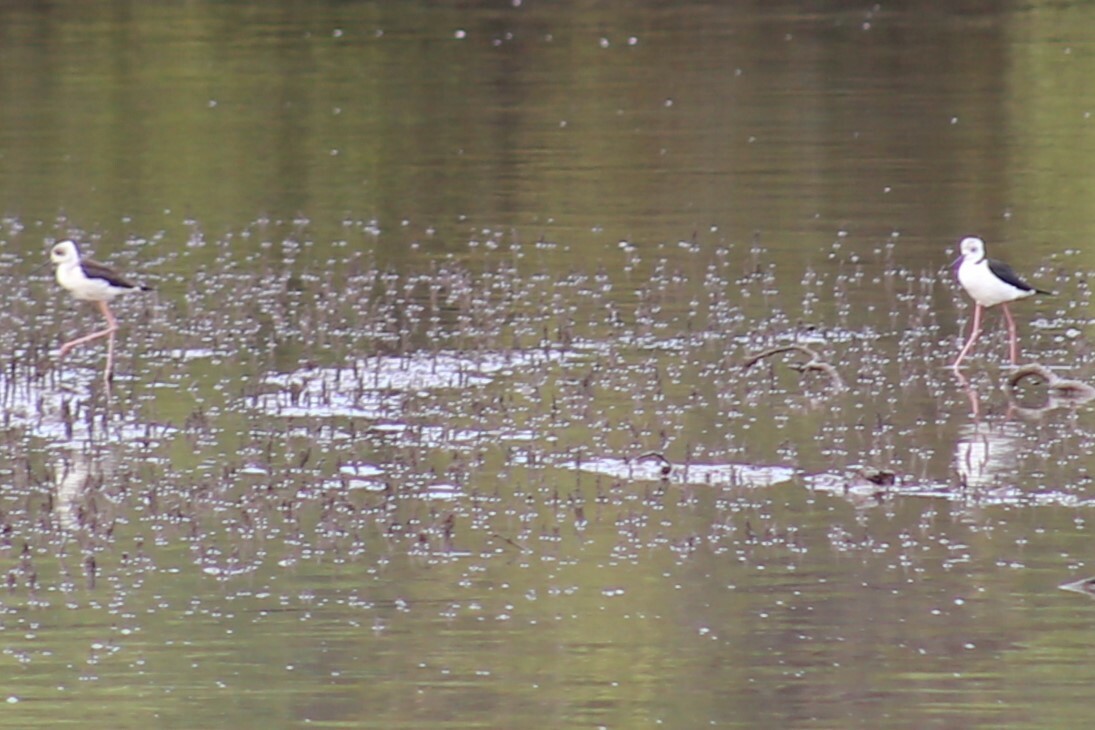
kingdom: Animalia
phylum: Chordata
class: Aves
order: Charadriiformes
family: Recurvirostridae
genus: Himantopus
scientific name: Himantopus leucocephalus
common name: White-headed stilt
